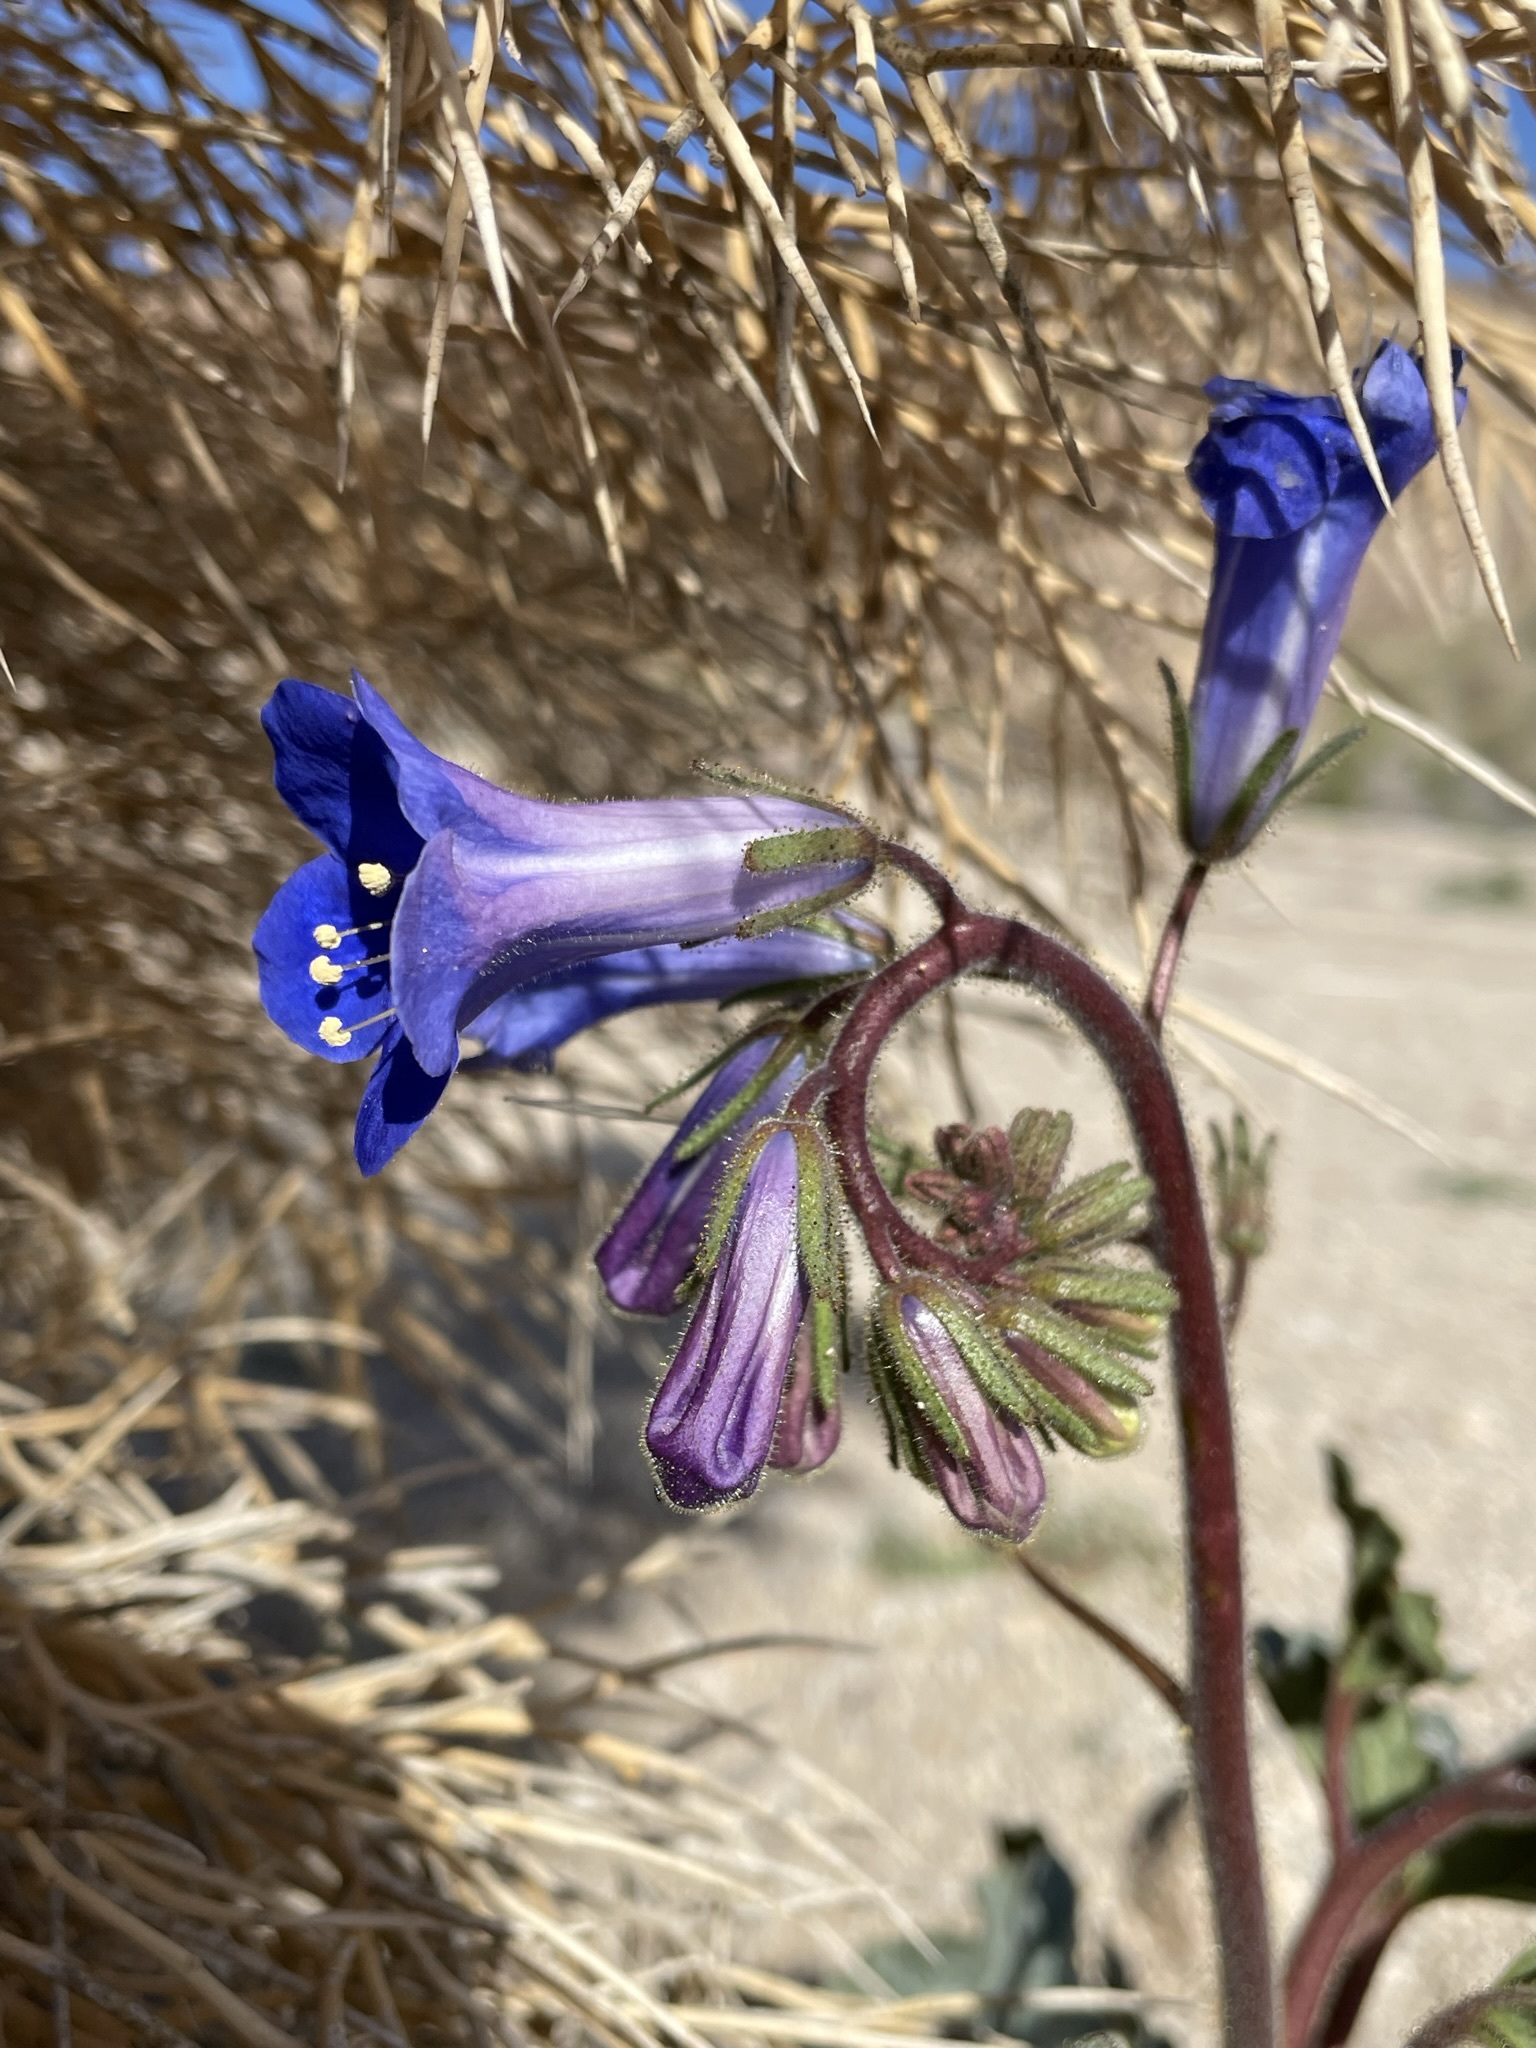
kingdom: Plantae
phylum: Tracheophyta
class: Magnoliopsida
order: Boraginales
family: Hydrophyllaceae
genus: Phacelia
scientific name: Phacelia campanularia
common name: California bluebell
